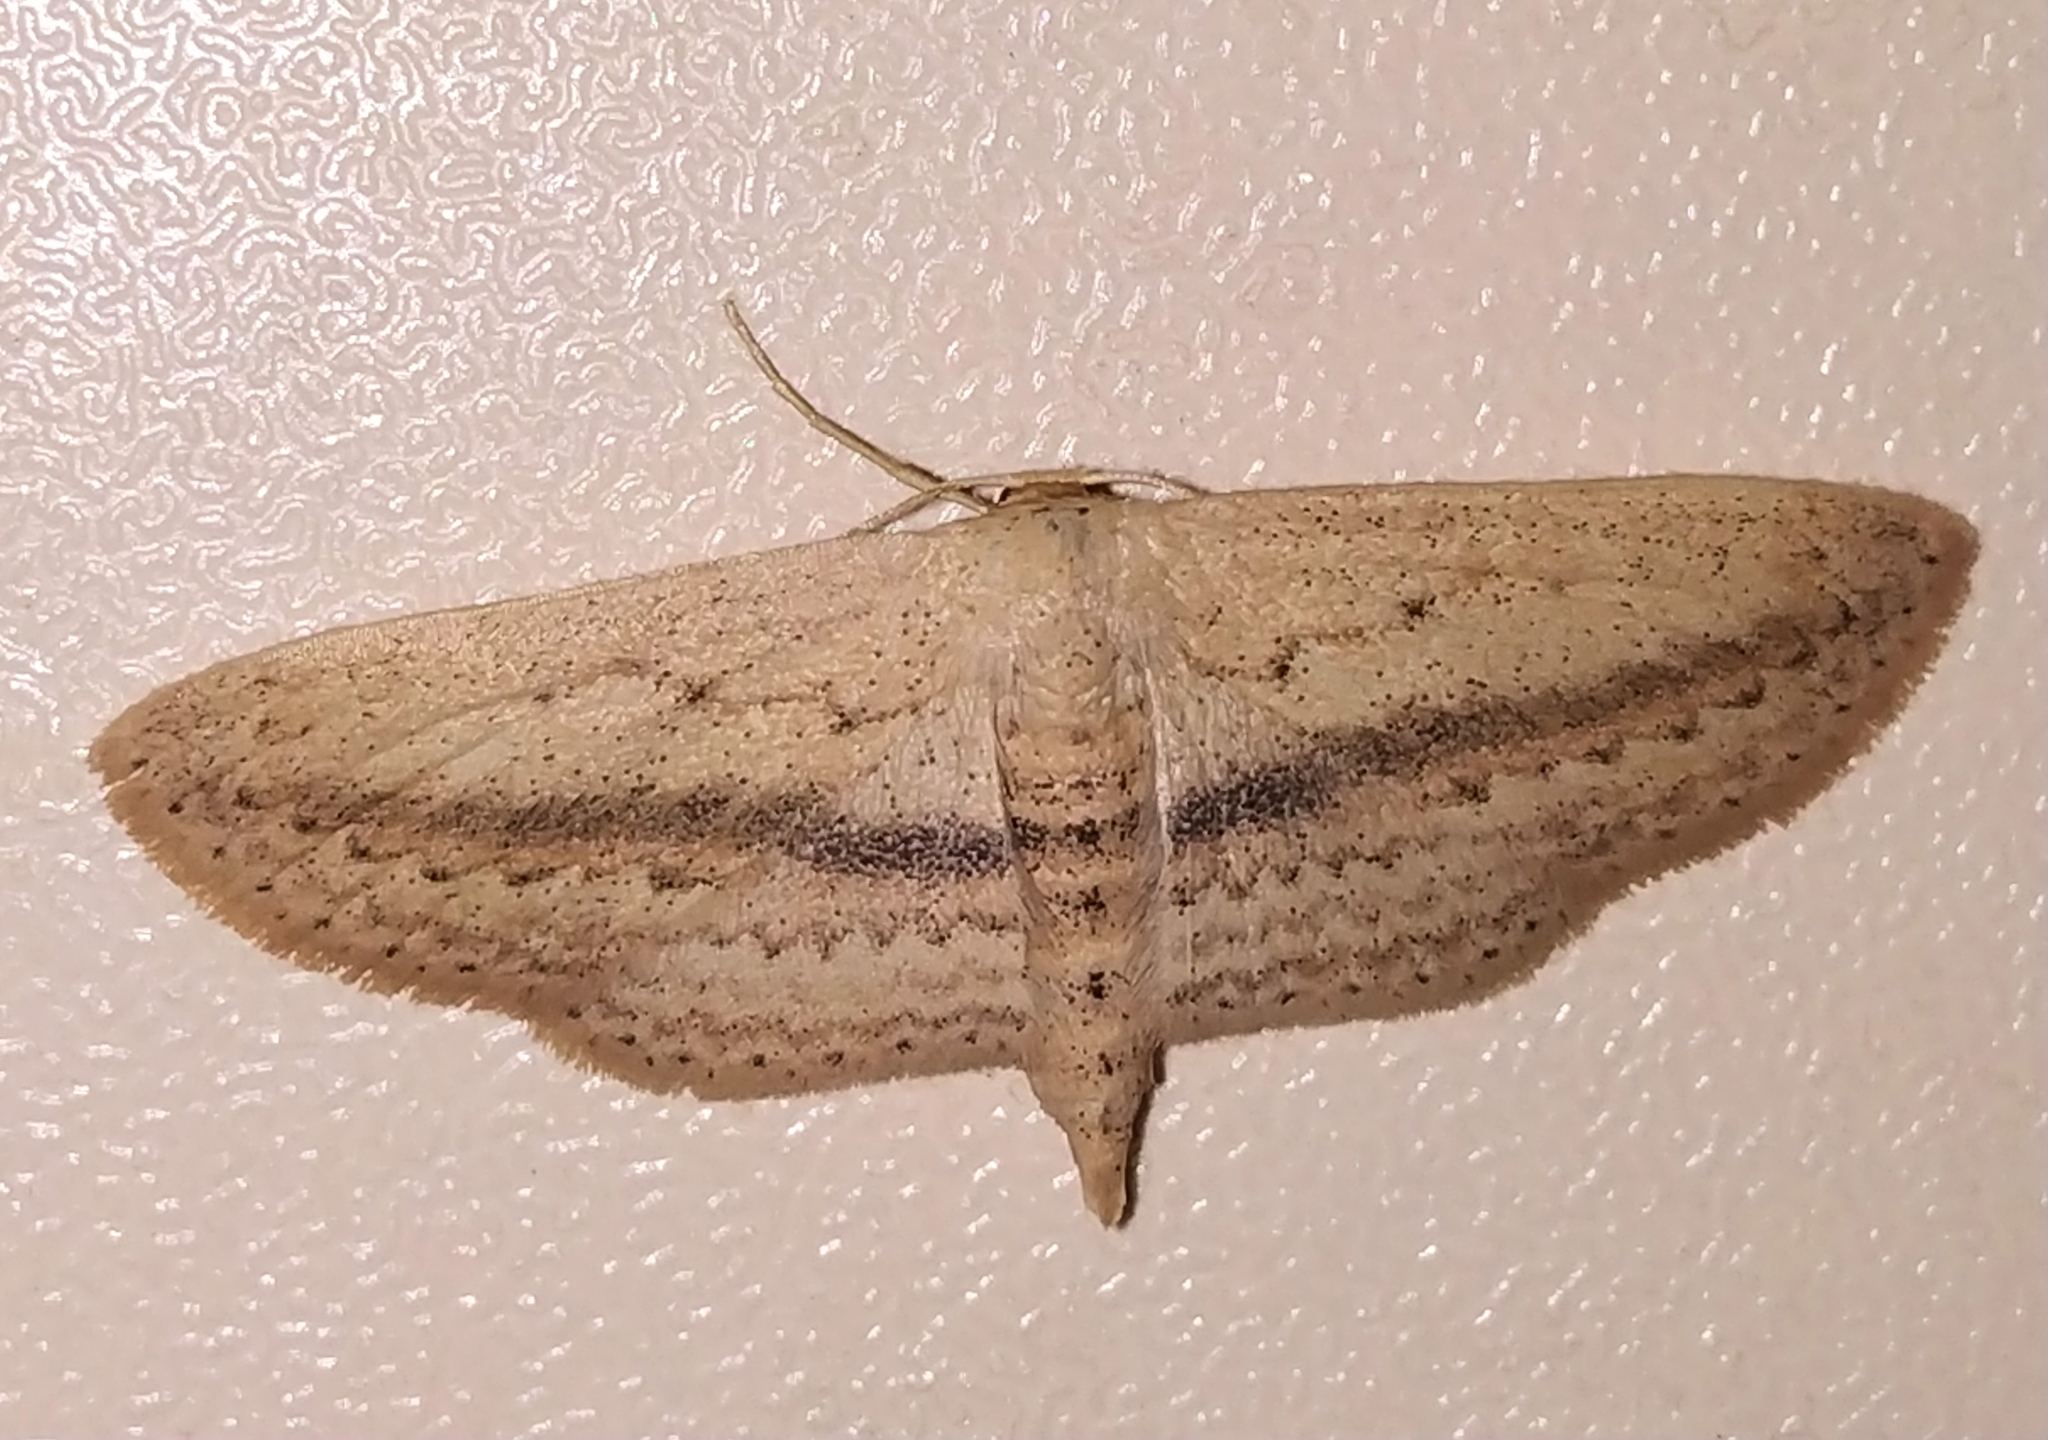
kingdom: Animalia
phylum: Arthropoda
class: Insecta
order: Lepidoptera
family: Geometridae
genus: Scopula
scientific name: Scopula emissaria
